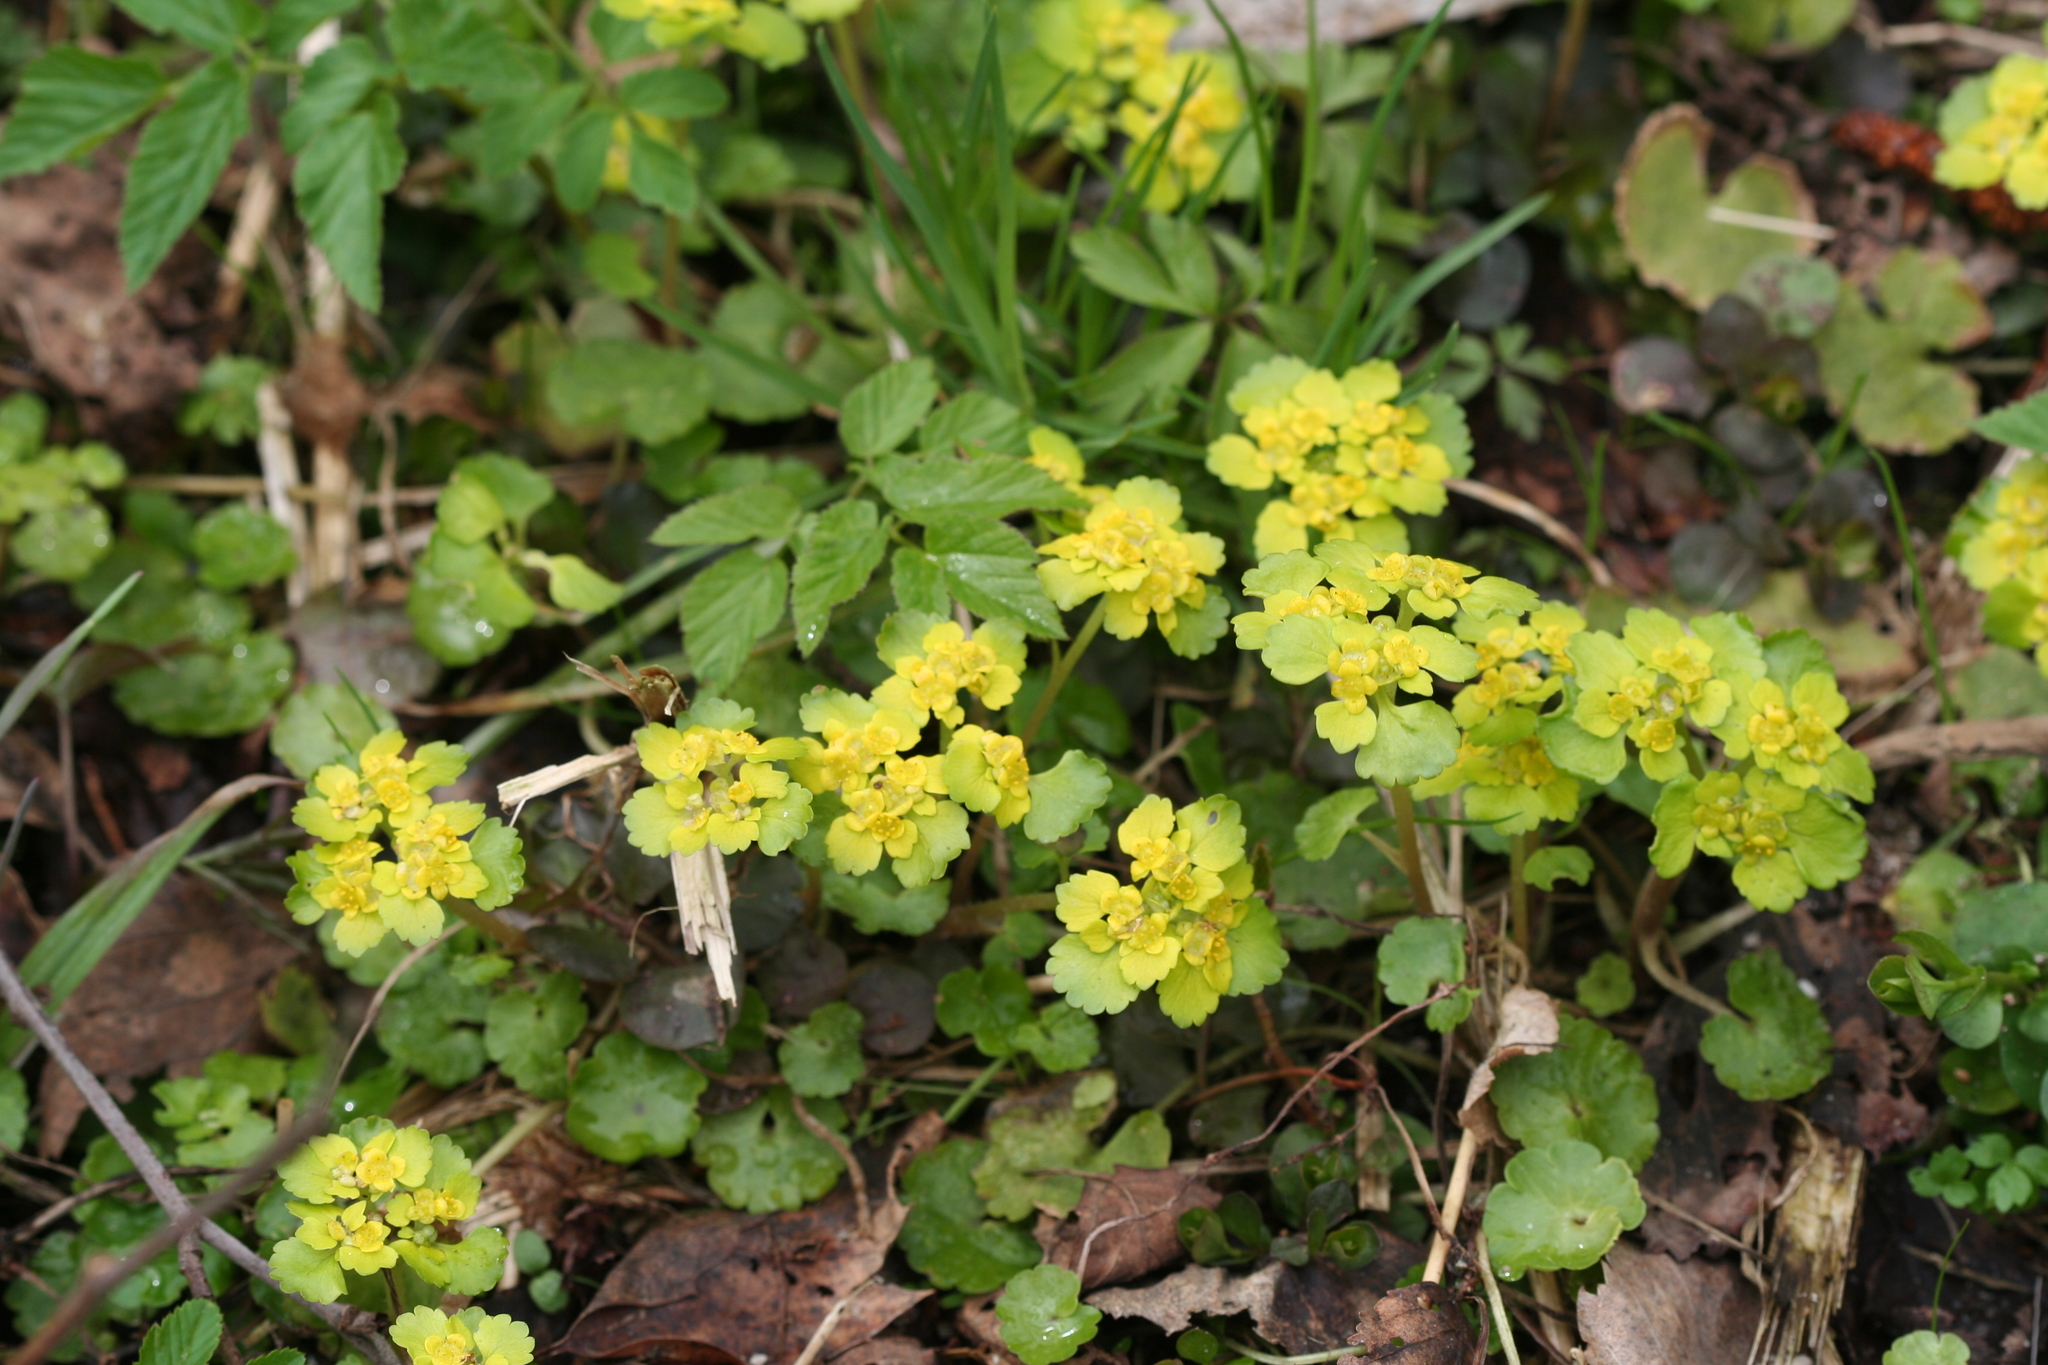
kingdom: Plantae
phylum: Tracheophyta
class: Magnoliopsida
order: Saxifragales
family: Saxifragaceae
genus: Chrysosplenium
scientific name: Chrysosplenium alternifolium
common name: Alternate-leaved golden-saxifrage
